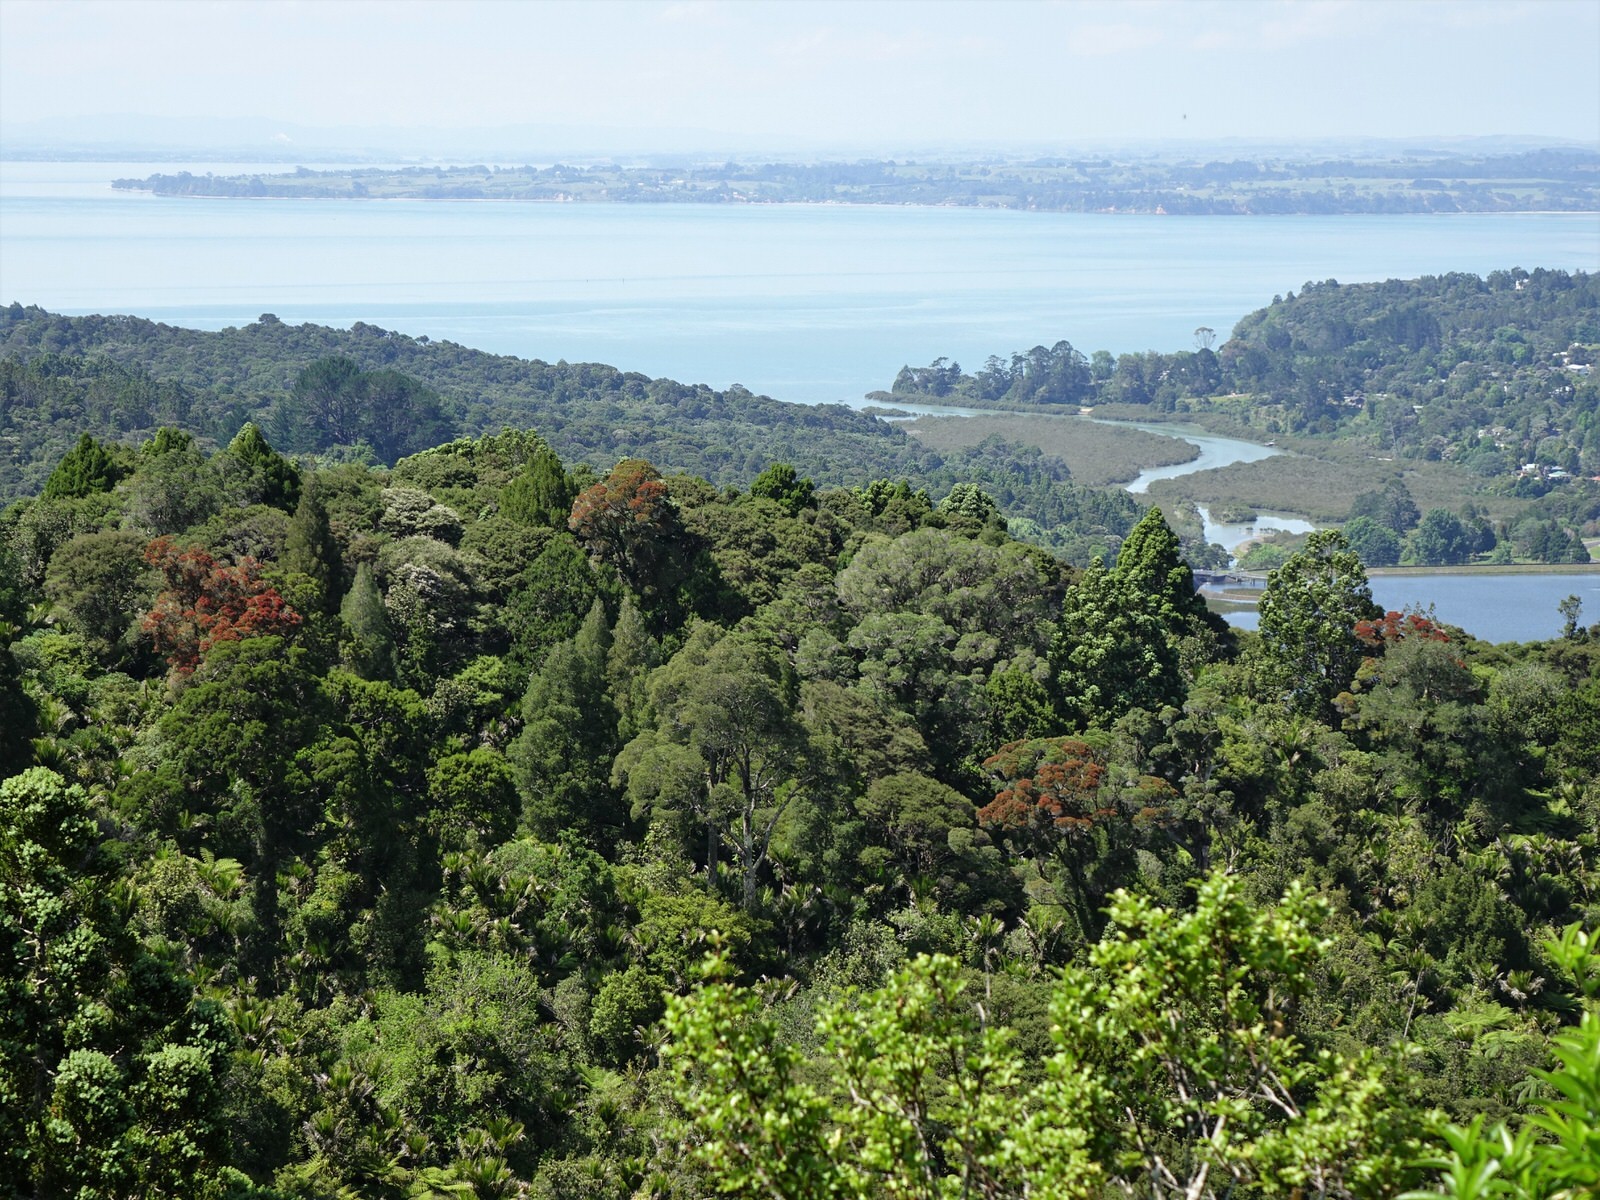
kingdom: Plantae
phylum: Tracheophyta
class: Magnoliopsida
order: Myrtales
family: Myrtaceae
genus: Metrosideros
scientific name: Metrosideros robusta
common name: Northern rata
